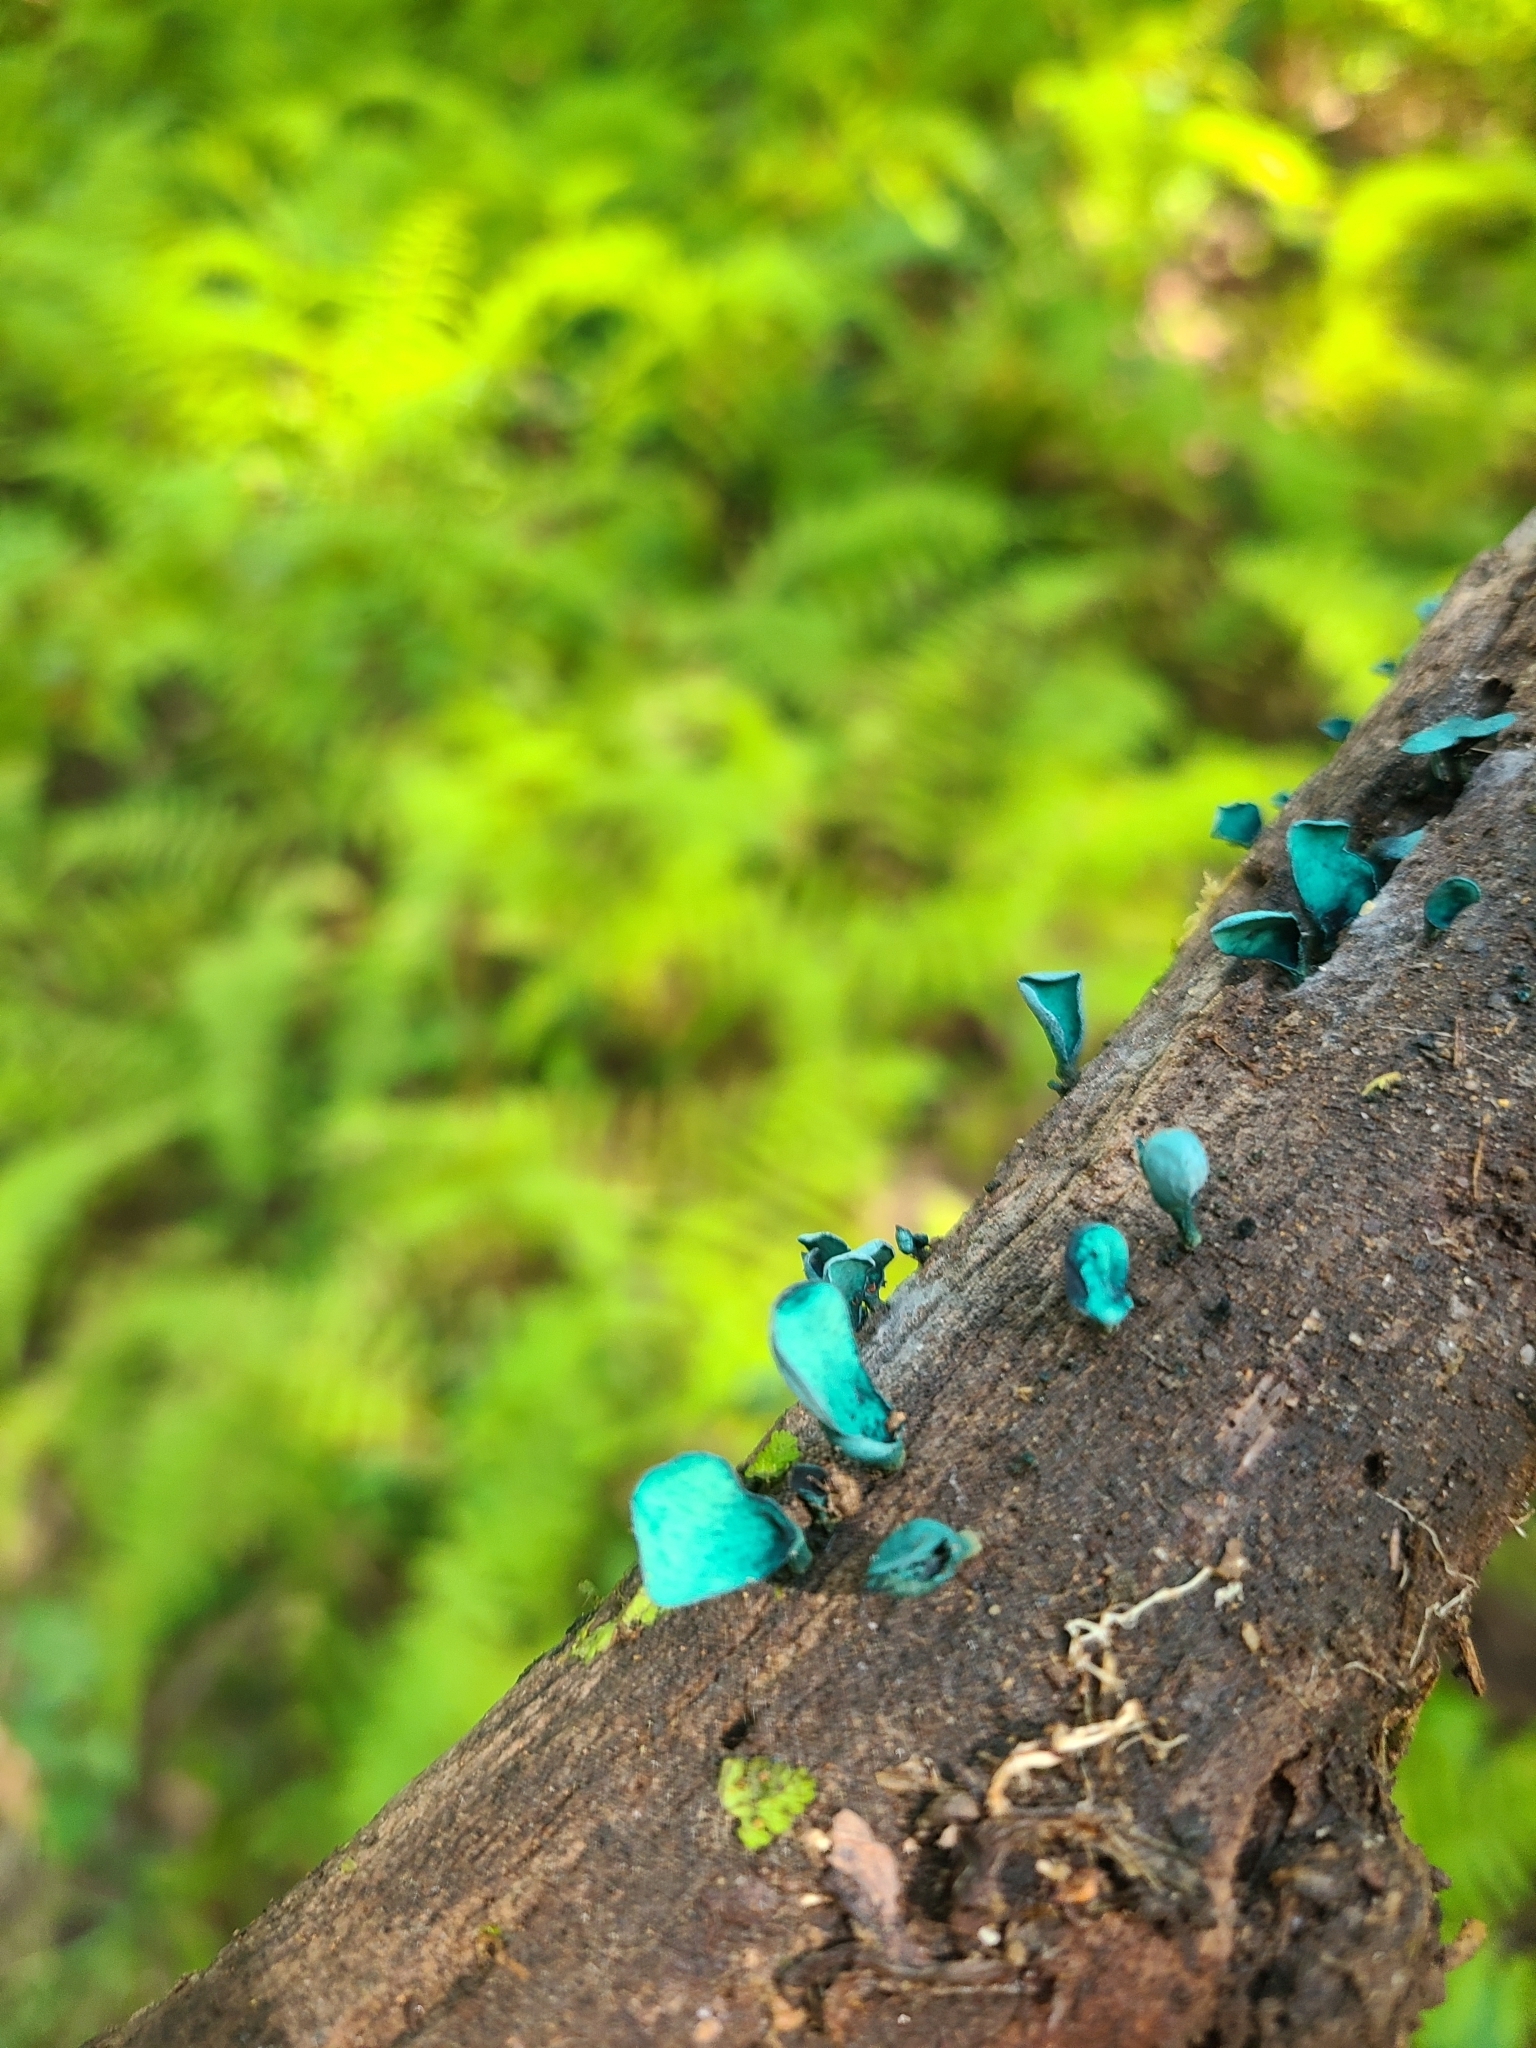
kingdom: Fungi
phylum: Ascomycota
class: Leotiomycetes
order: Helotiales
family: Chlorociboriaceae
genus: Chlorociboria
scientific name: Chlorociboria aeruginascens
